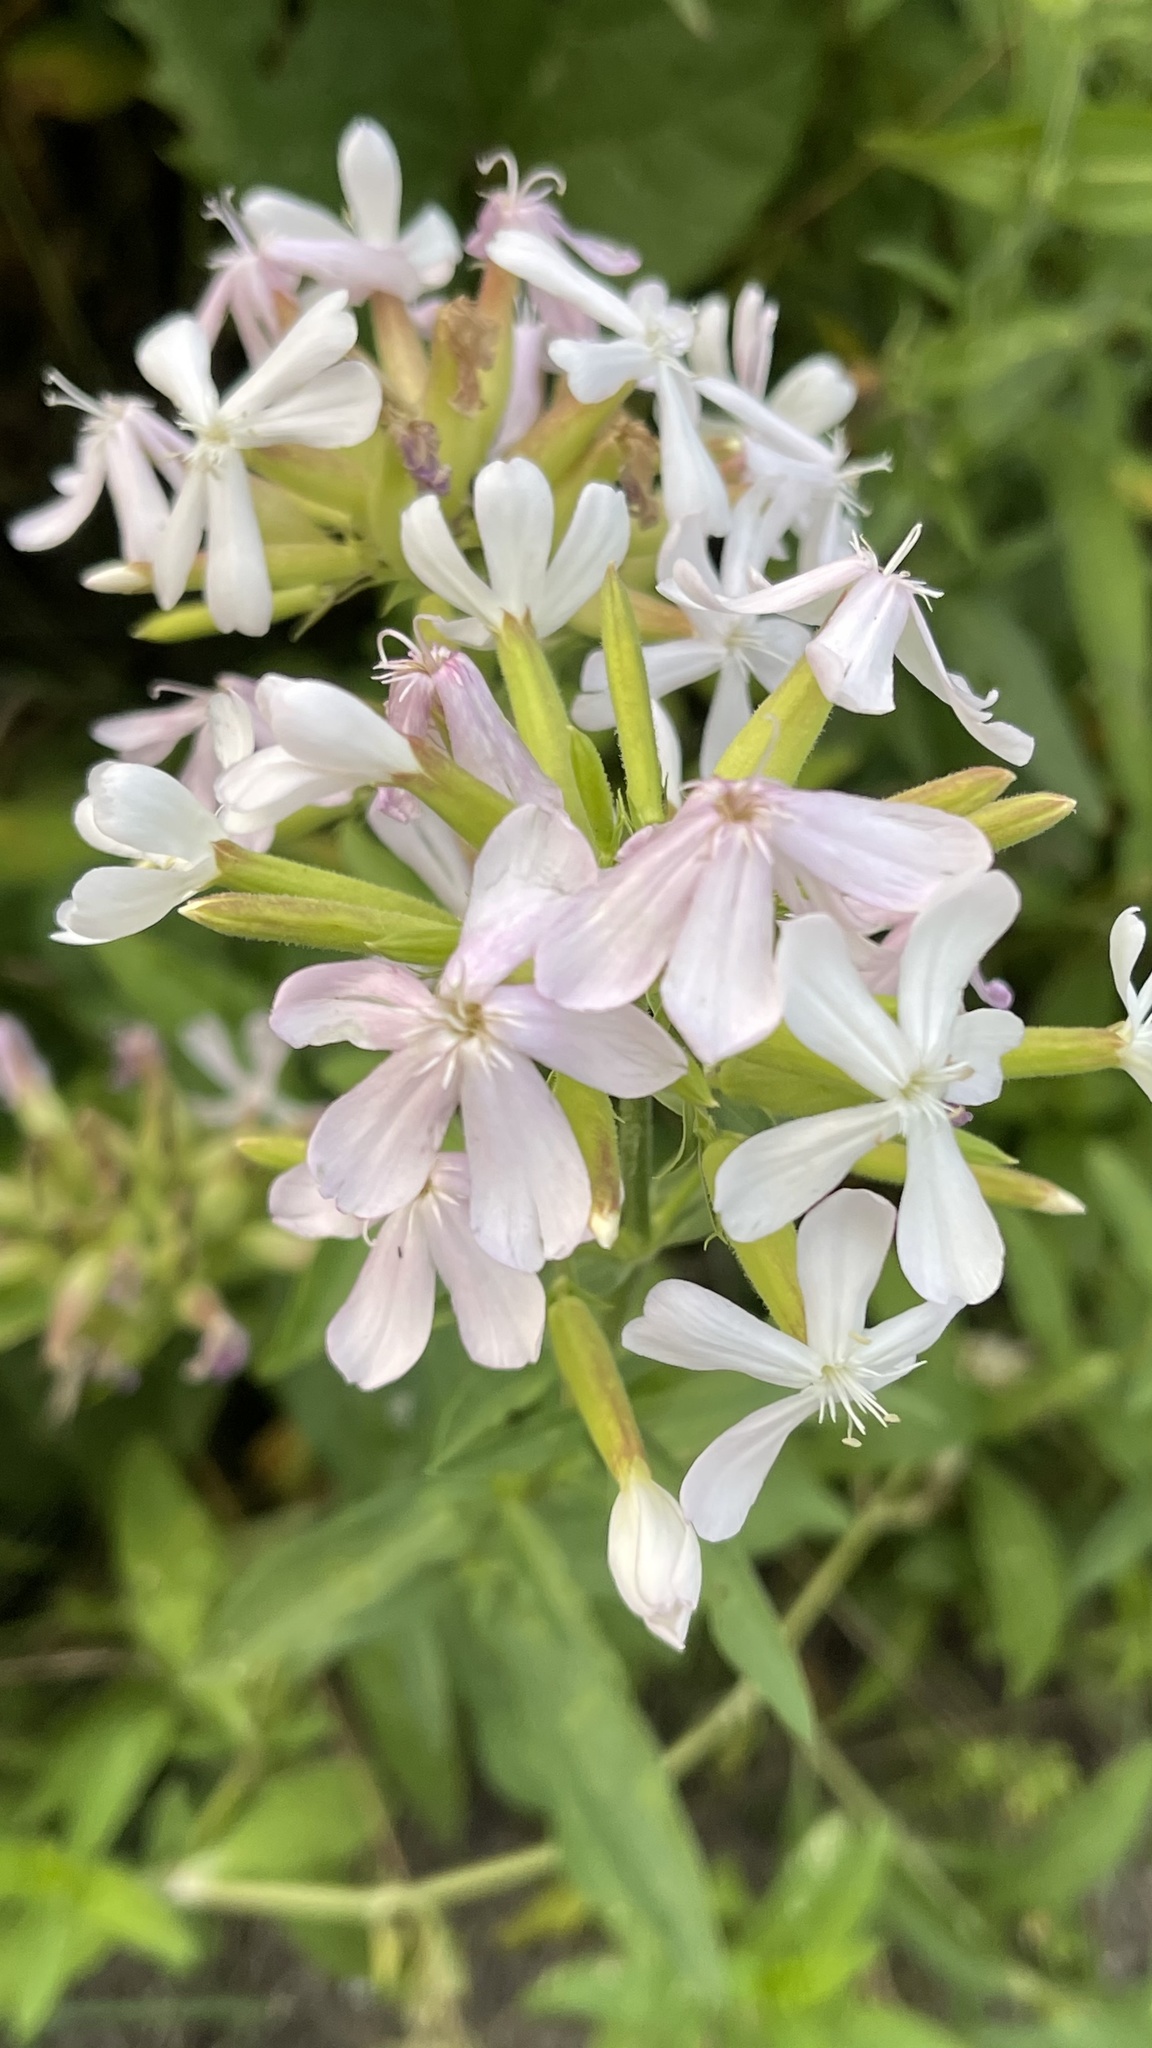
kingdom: Plantae
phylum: Tracheophyta
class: Magnoliopsida
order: Caryophyllales
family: Caryophyllaceae
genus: Saponaria
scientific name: Saponaria officinalis
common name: Soapwort
